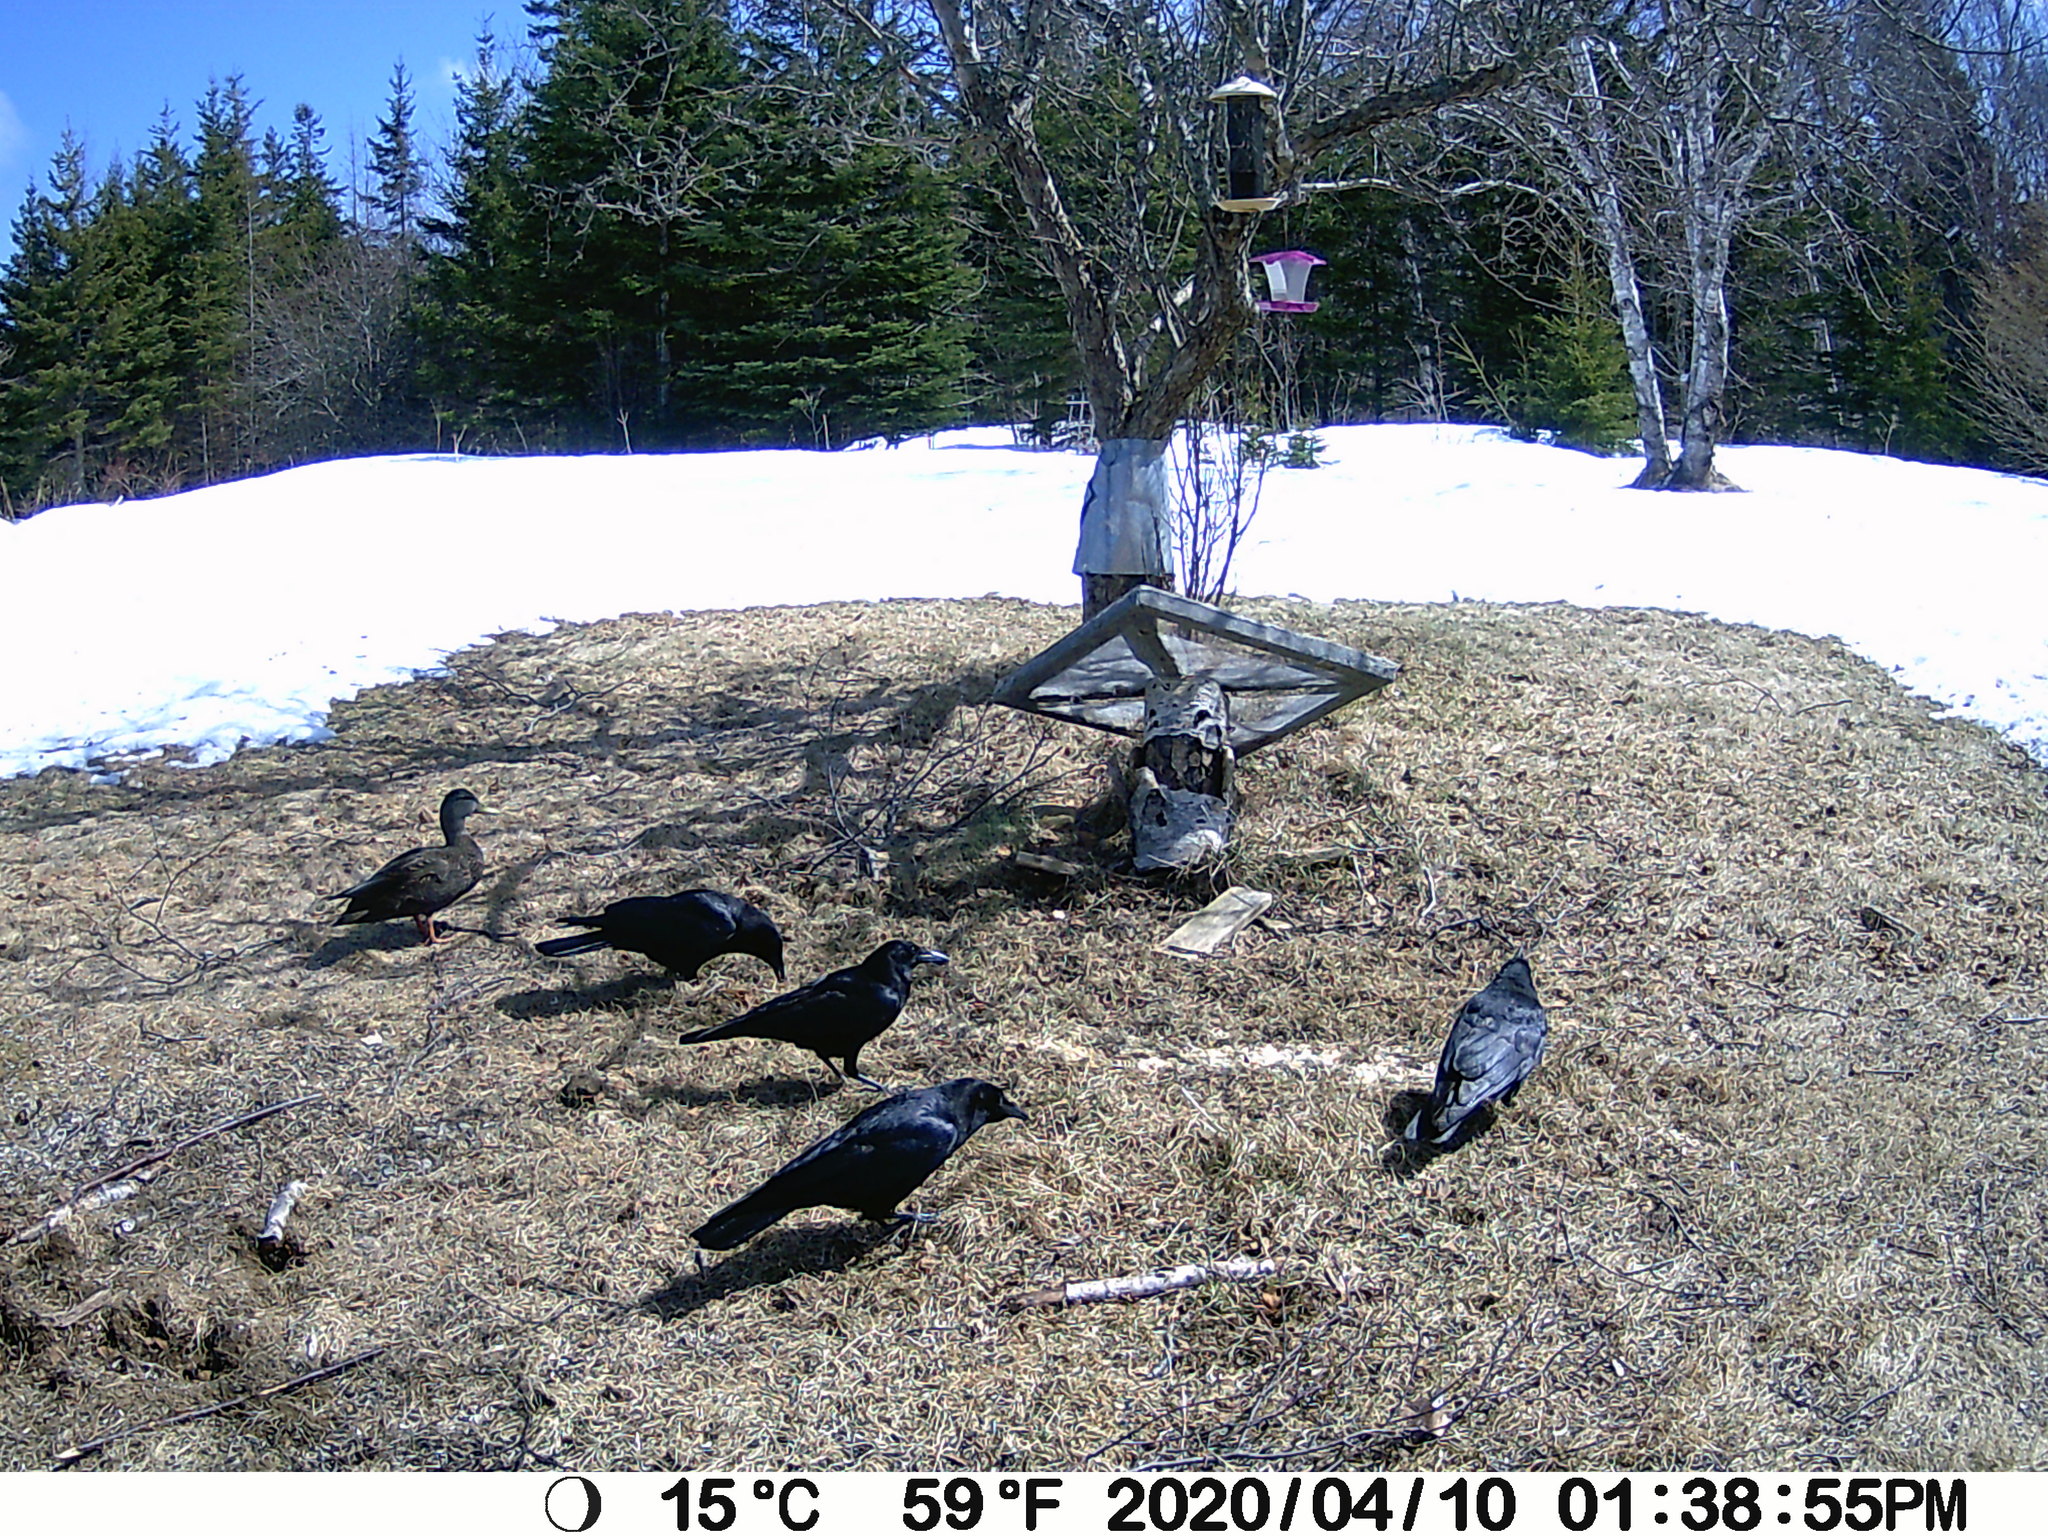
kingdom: Animalia
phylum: Chordata
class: Aves
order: Passeriformes
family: Corvidae
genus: Corvus
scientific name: Corvus brachyrhynchos
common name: American crow
